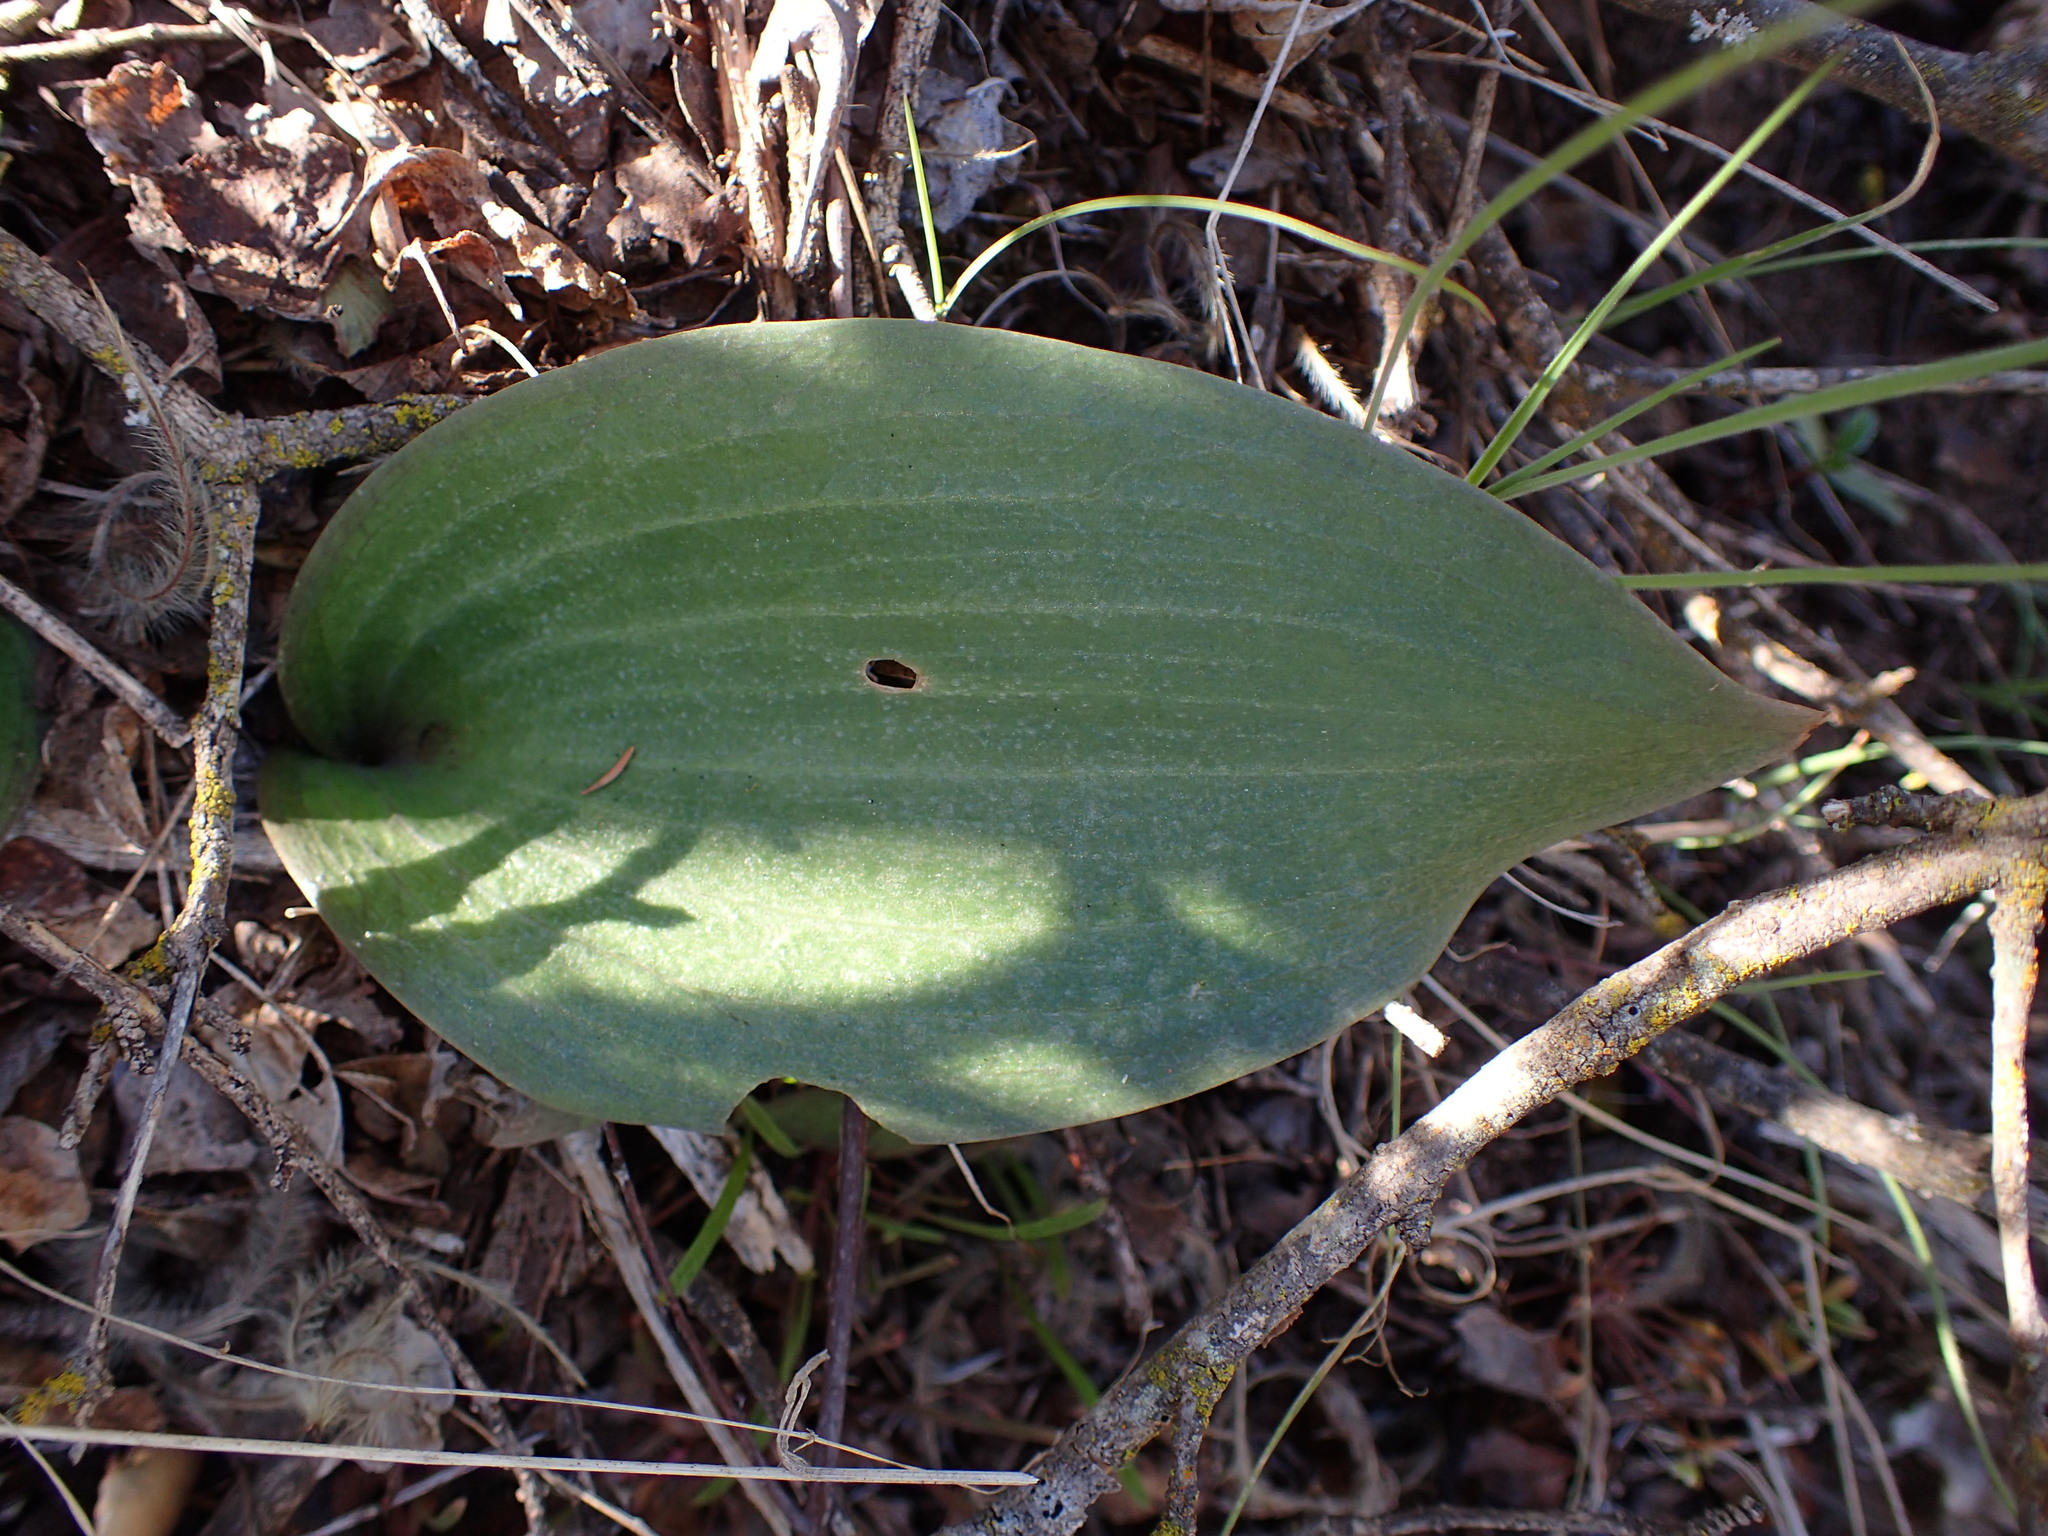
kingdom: Plantae
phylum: Tracheophyta
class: Liliopsida
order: Liliales
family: Liliaceae
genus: Fritillaria
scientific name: Fritillaria ojaiensis
